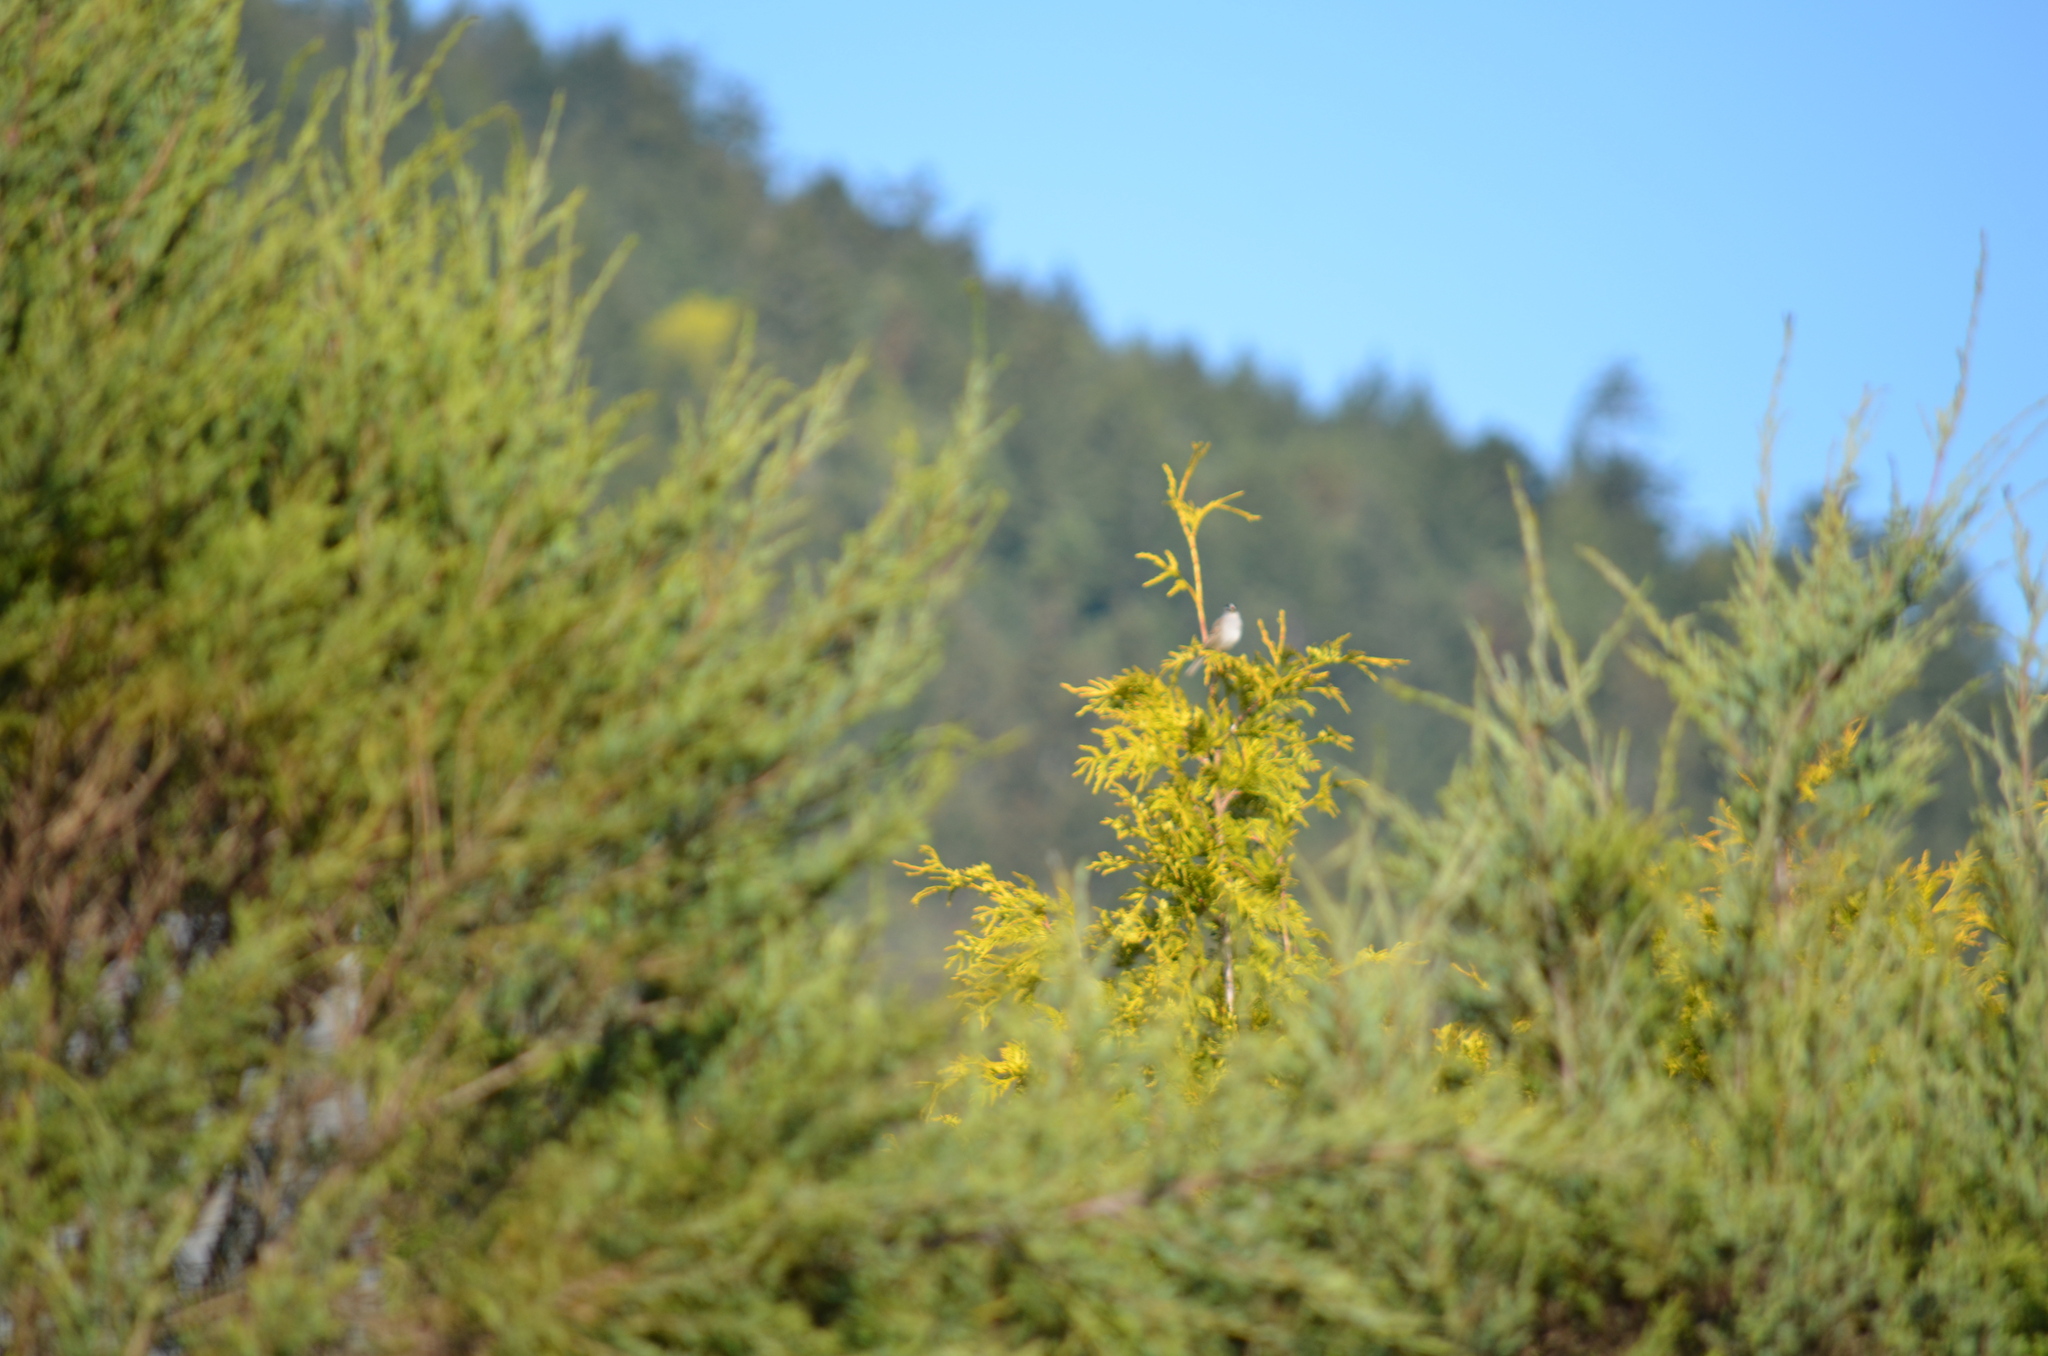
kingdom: Animalia
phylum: Chordata
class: Aves
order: Passeriformes
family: Passerellidae
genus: Zonotrichia
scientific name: Zonotrichia leucophrys
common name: White-crowned sparrow
